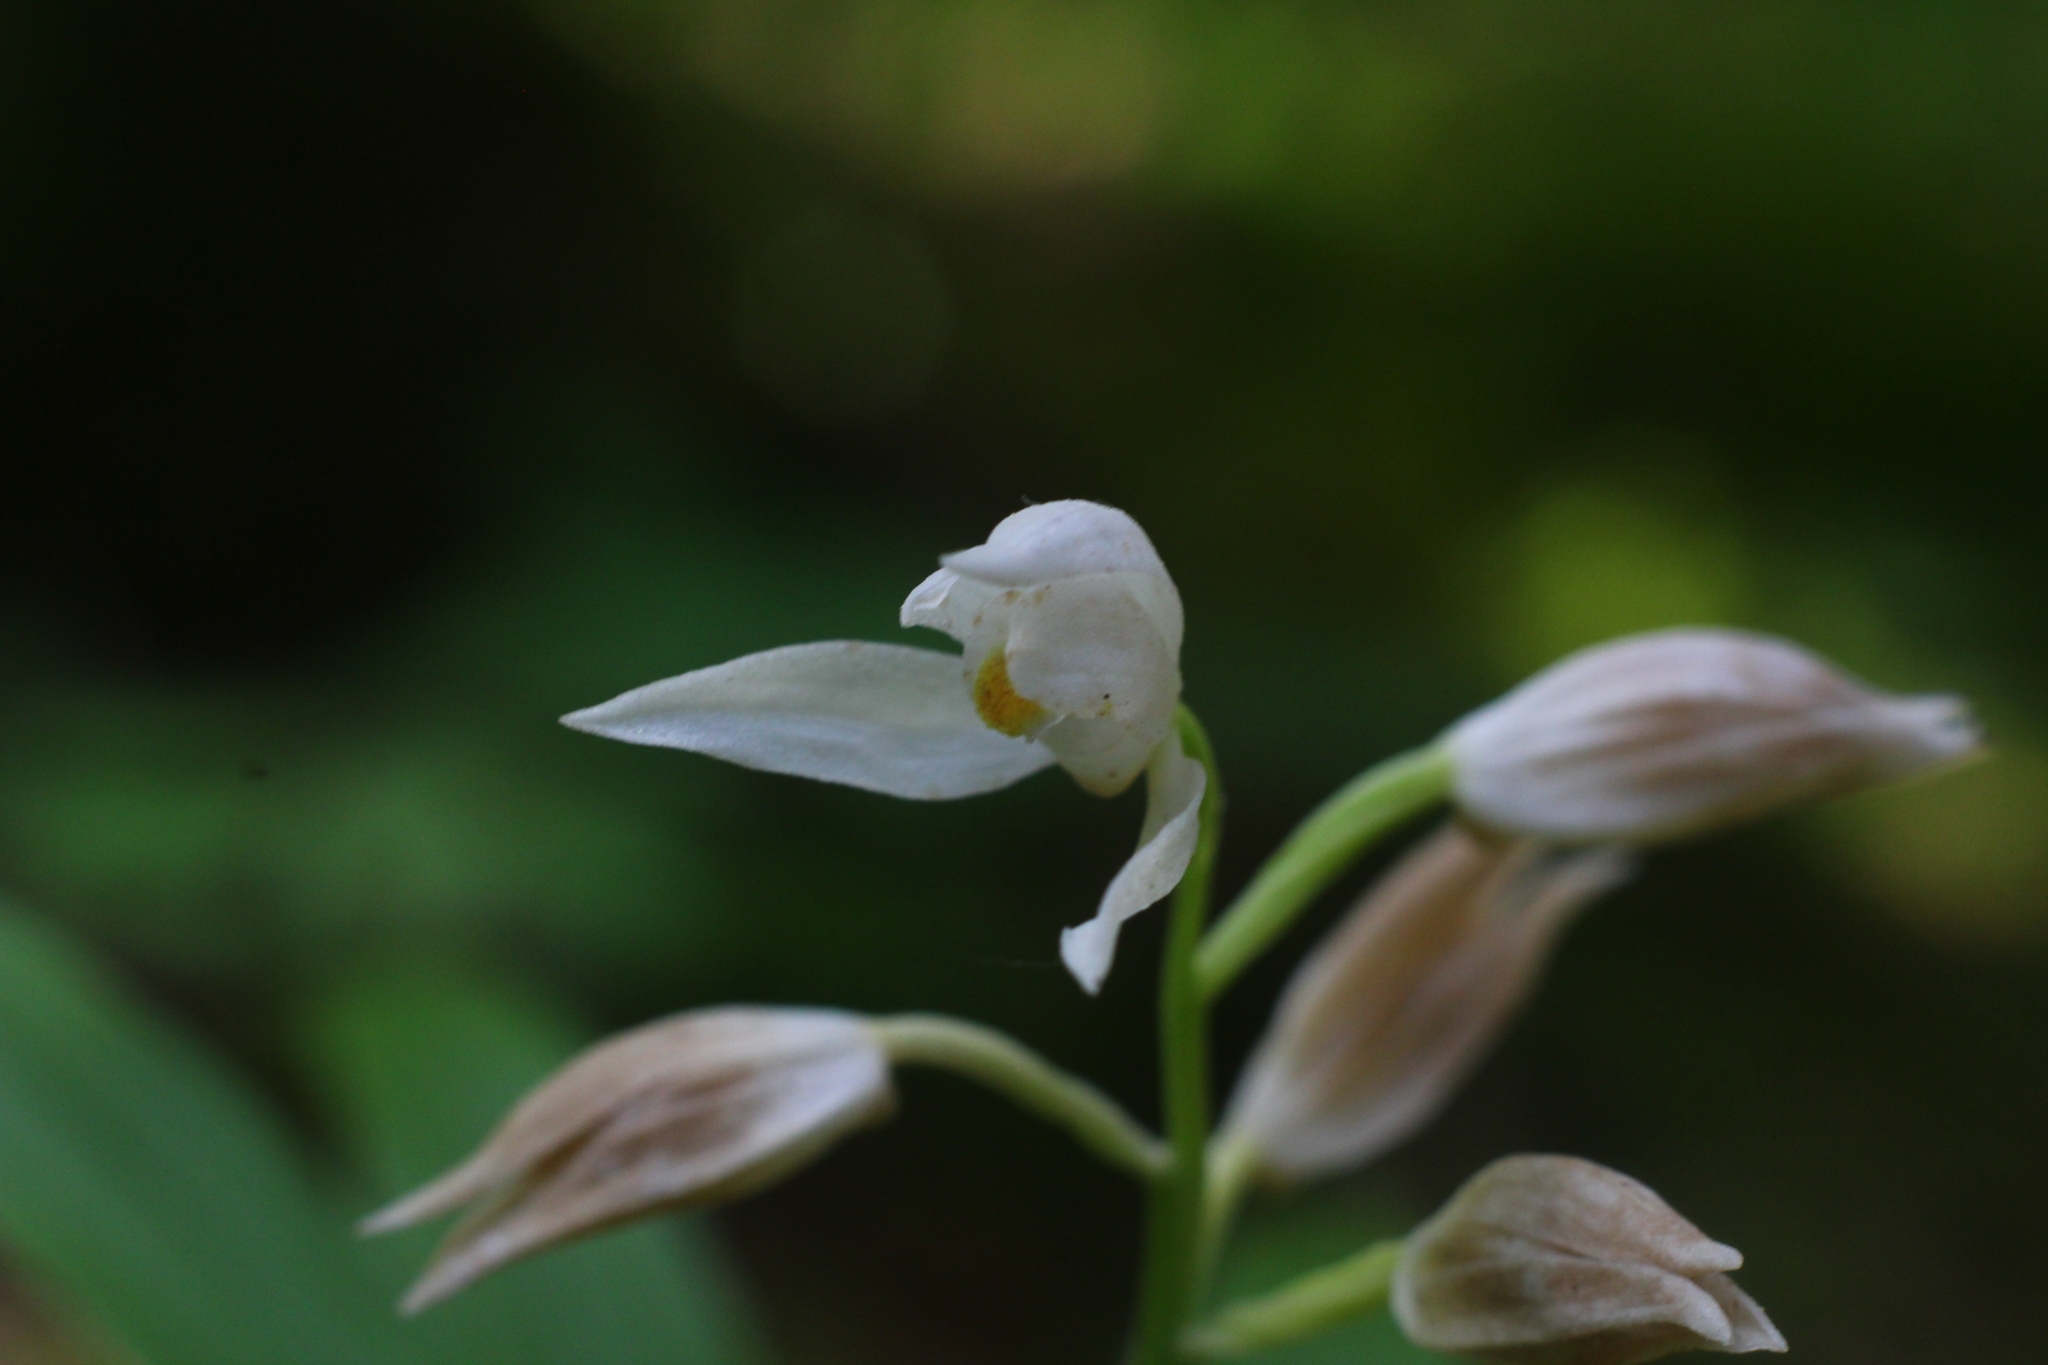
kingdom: Plantae
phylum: Tracheophyta
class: Liliopsida
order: Asparagales
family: Orchidaceae
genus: Cephalanthera
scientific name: Cephalanthera longifolia
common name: Narrow-leaved helleborine
